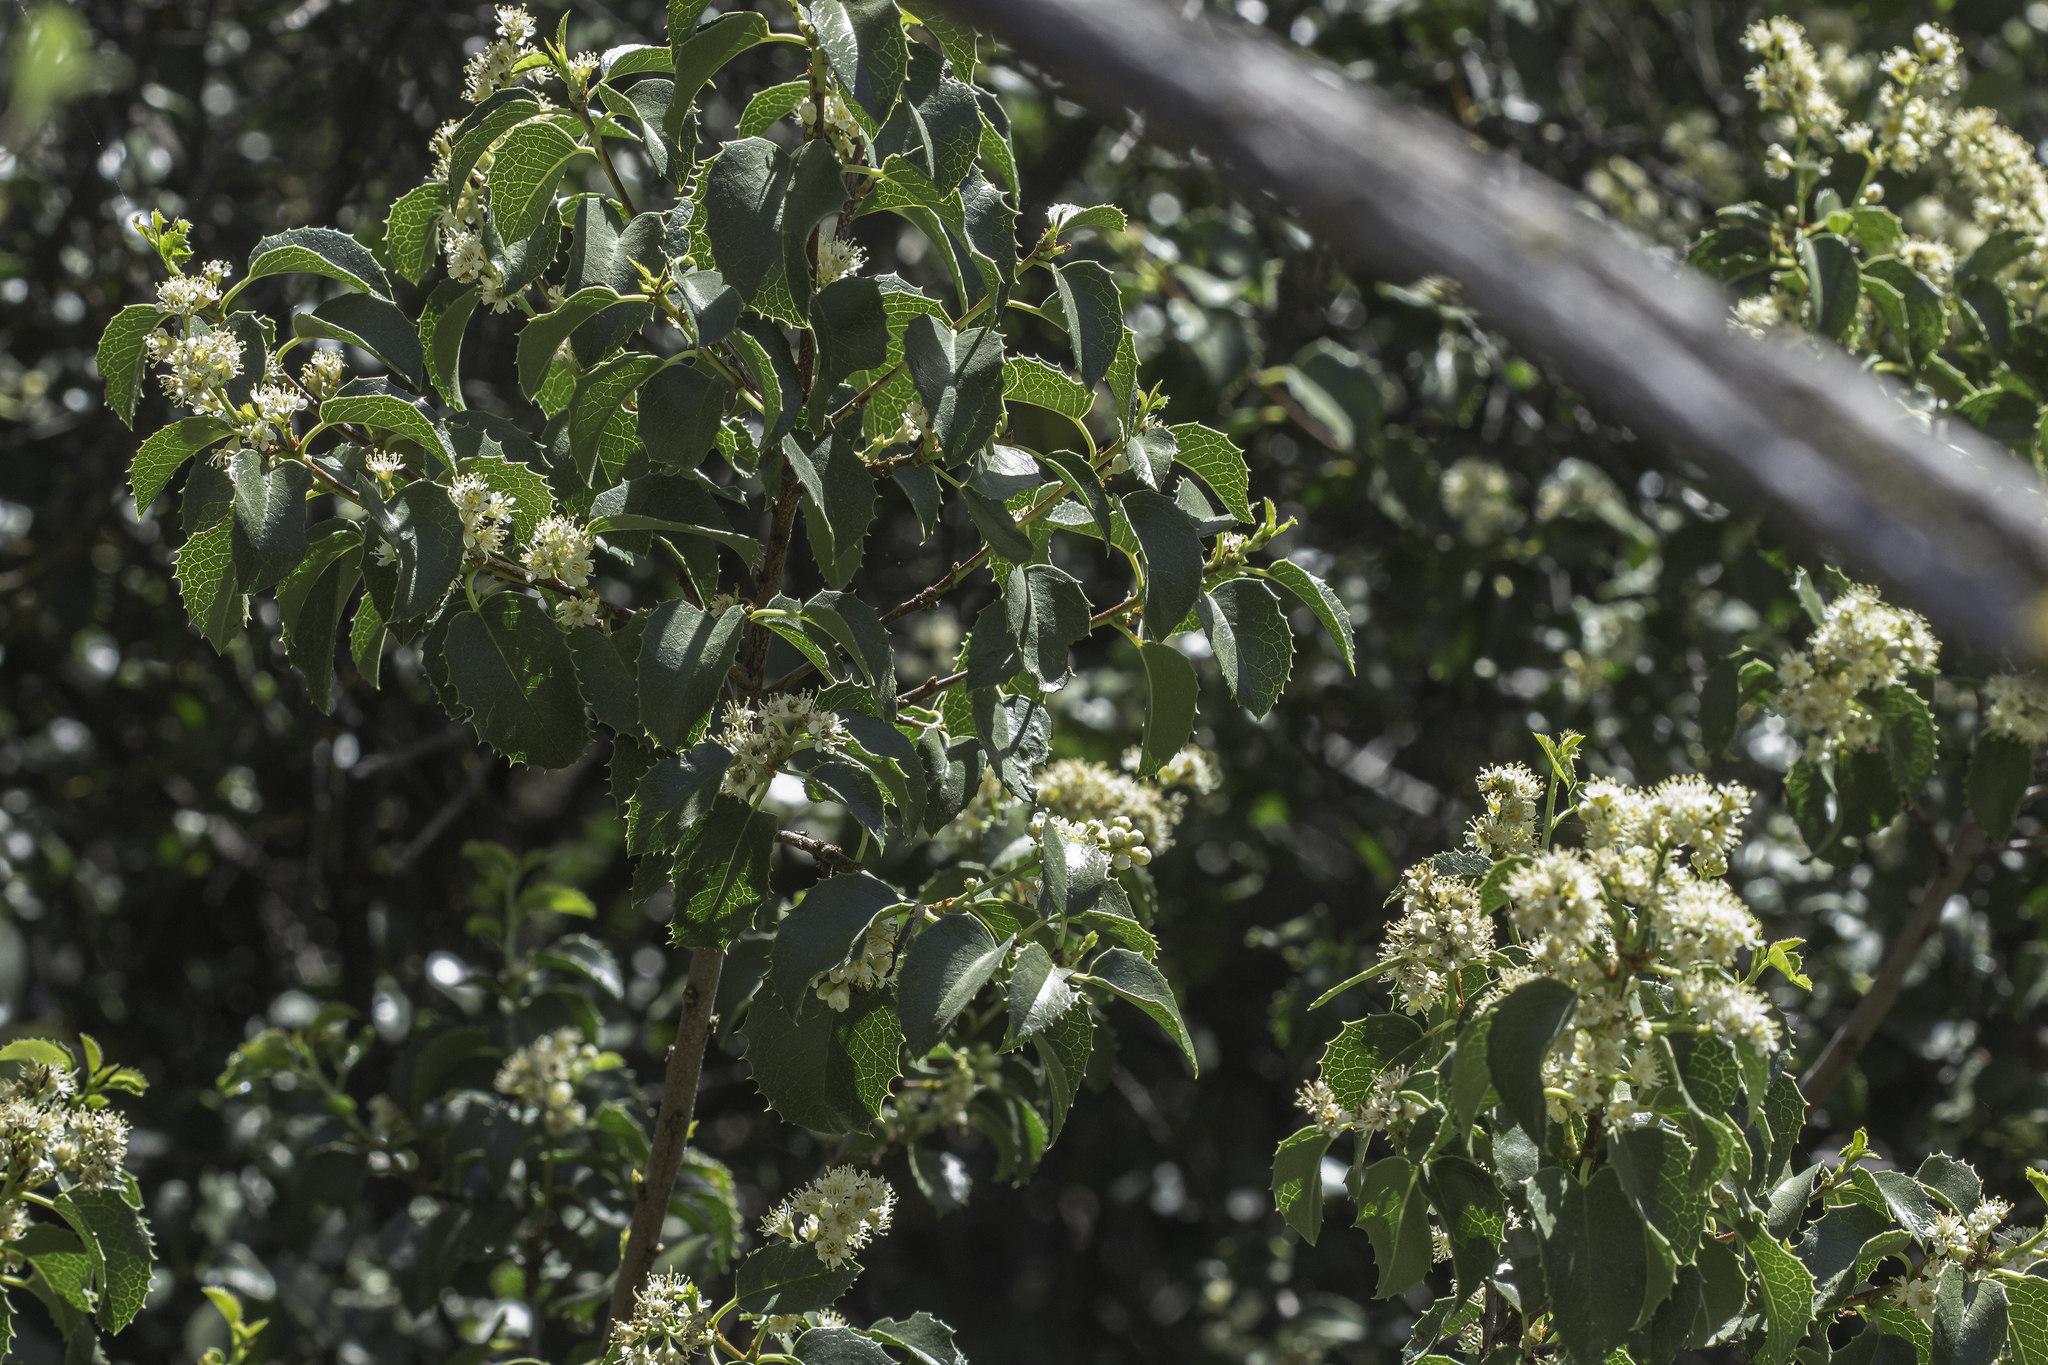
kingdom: Plantae
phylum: Tracheophyta
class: Magnoliopsida
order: Rosales
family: Rosaceae
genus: Prunus
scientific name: Prunus ilicifolia
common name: Hollyleaf cherry
